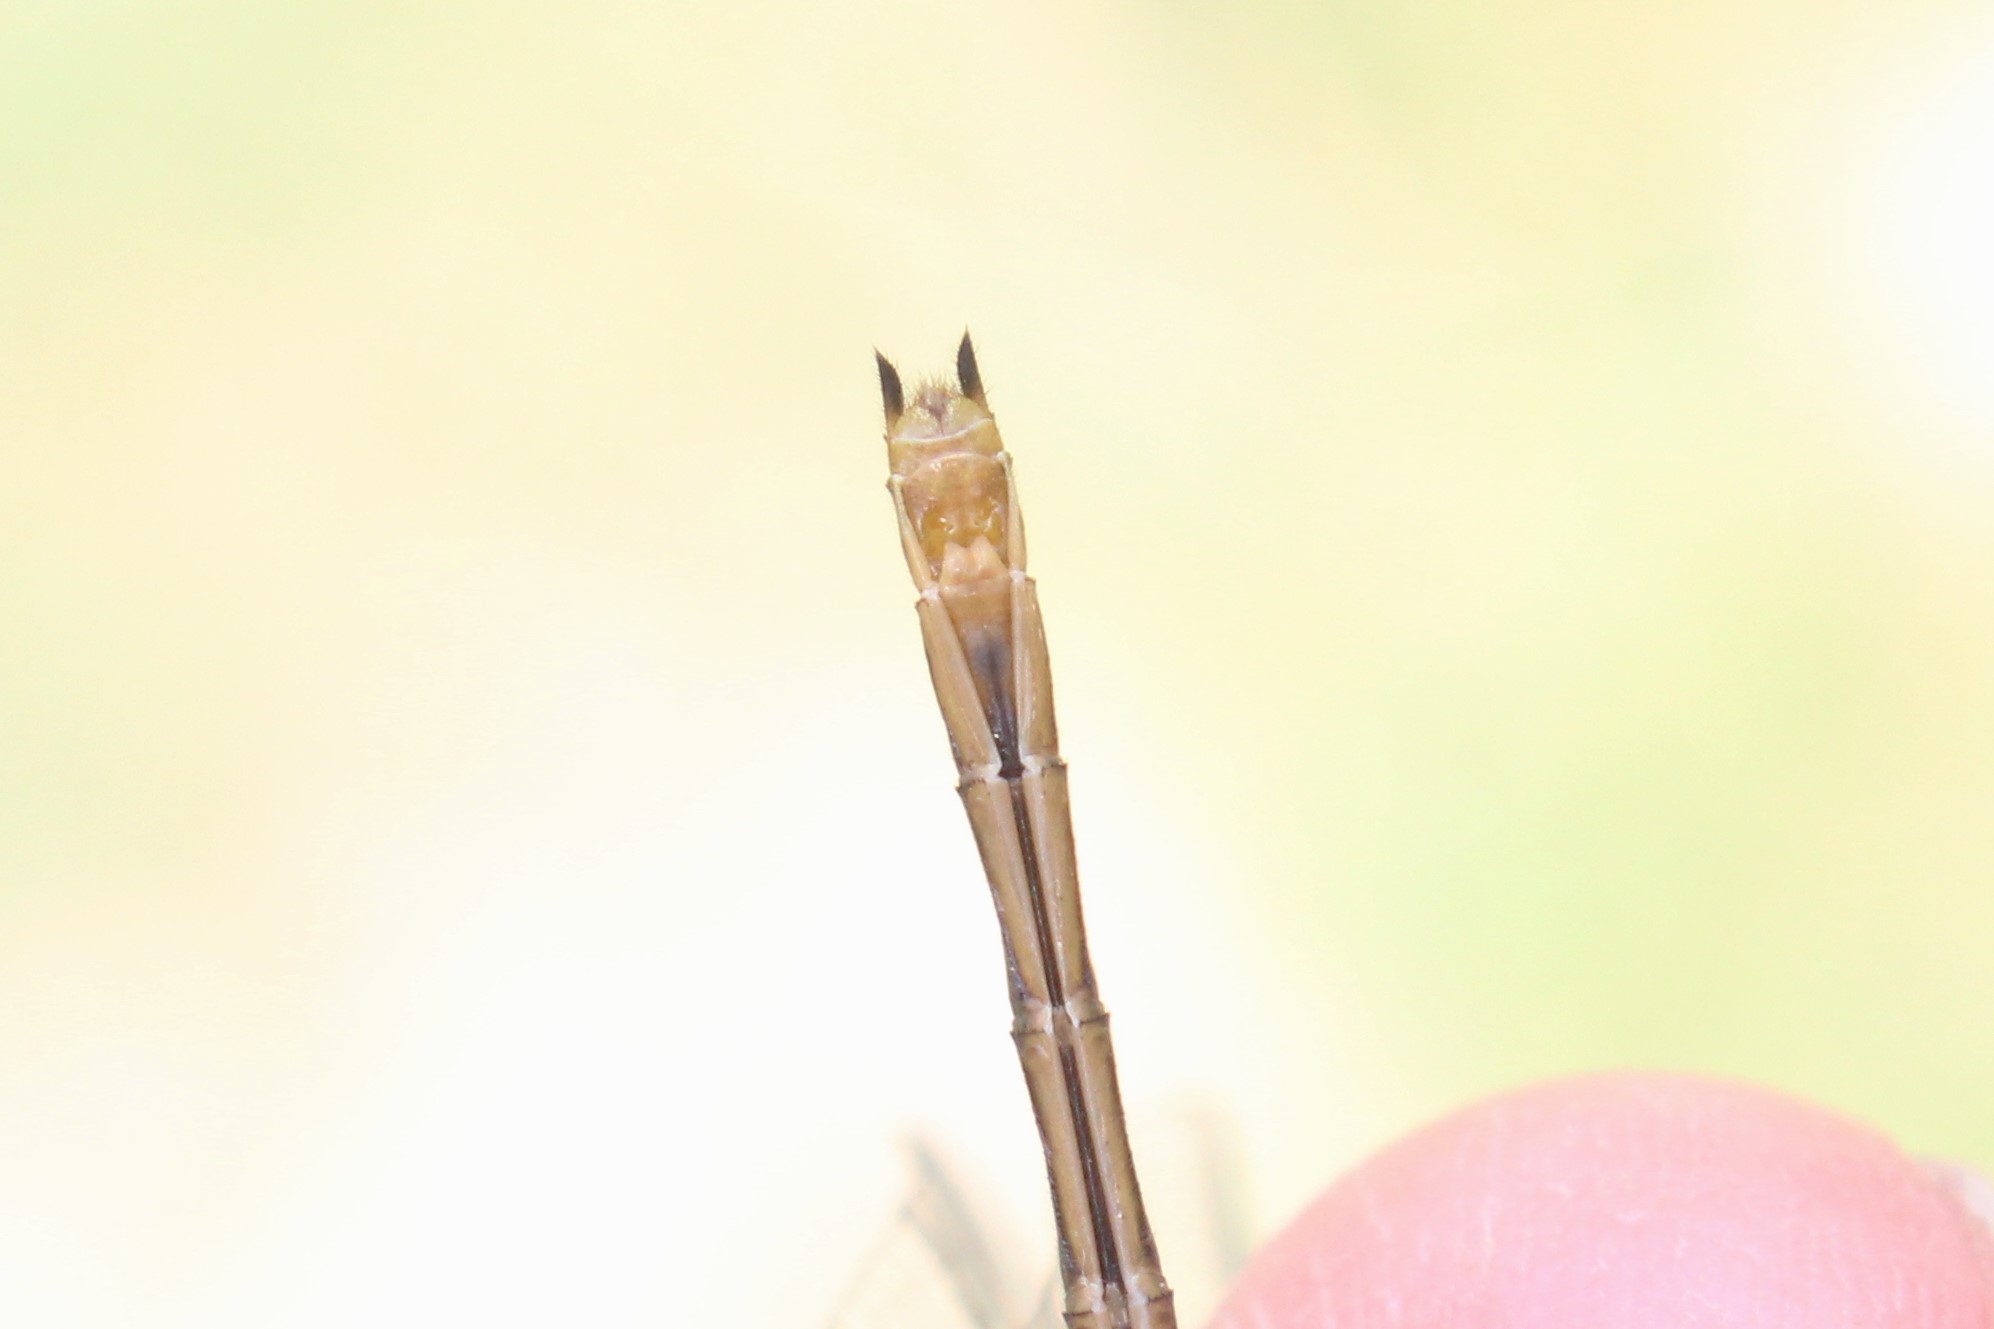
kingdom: Animalia
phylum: Arthropoda
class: Insecta
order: Odonata
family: Libellulidae
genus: Sympetrum
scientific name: Sympetrum rubicundulum
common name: Ruby meadowhawk
